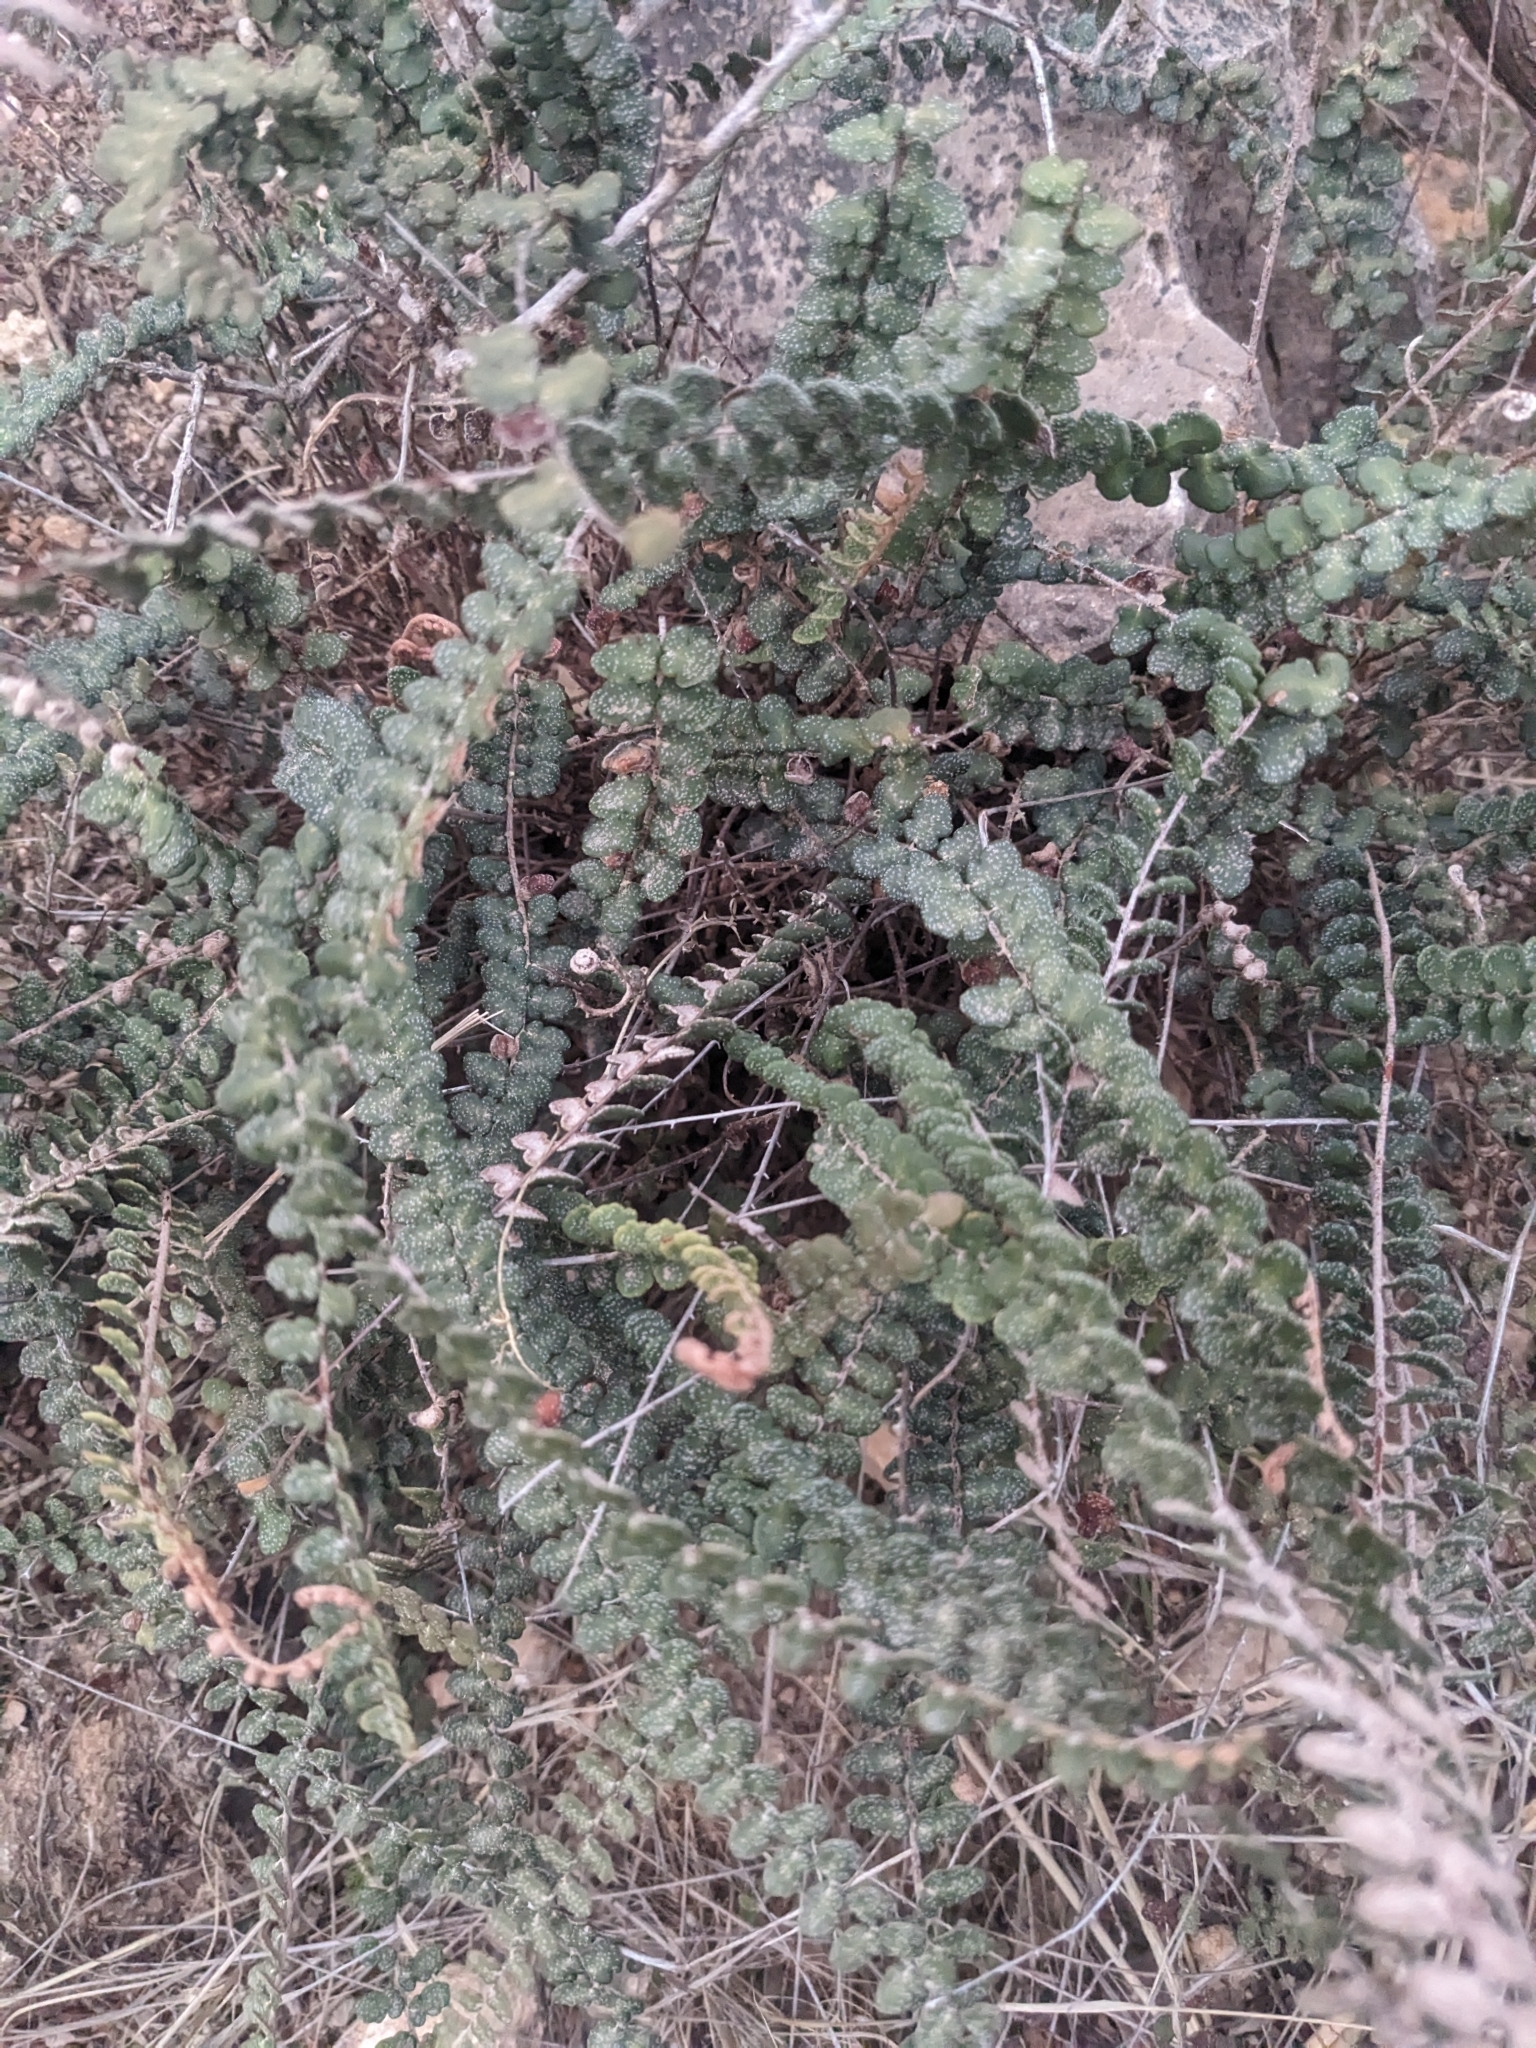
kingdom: Plantae
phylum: Tracheophyta
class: Polypodiopsida
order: Polypodiales
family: Pteridaceae
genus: Astrolepis
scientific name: Astrolepis cochisensis
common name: Scaly cloak fern
